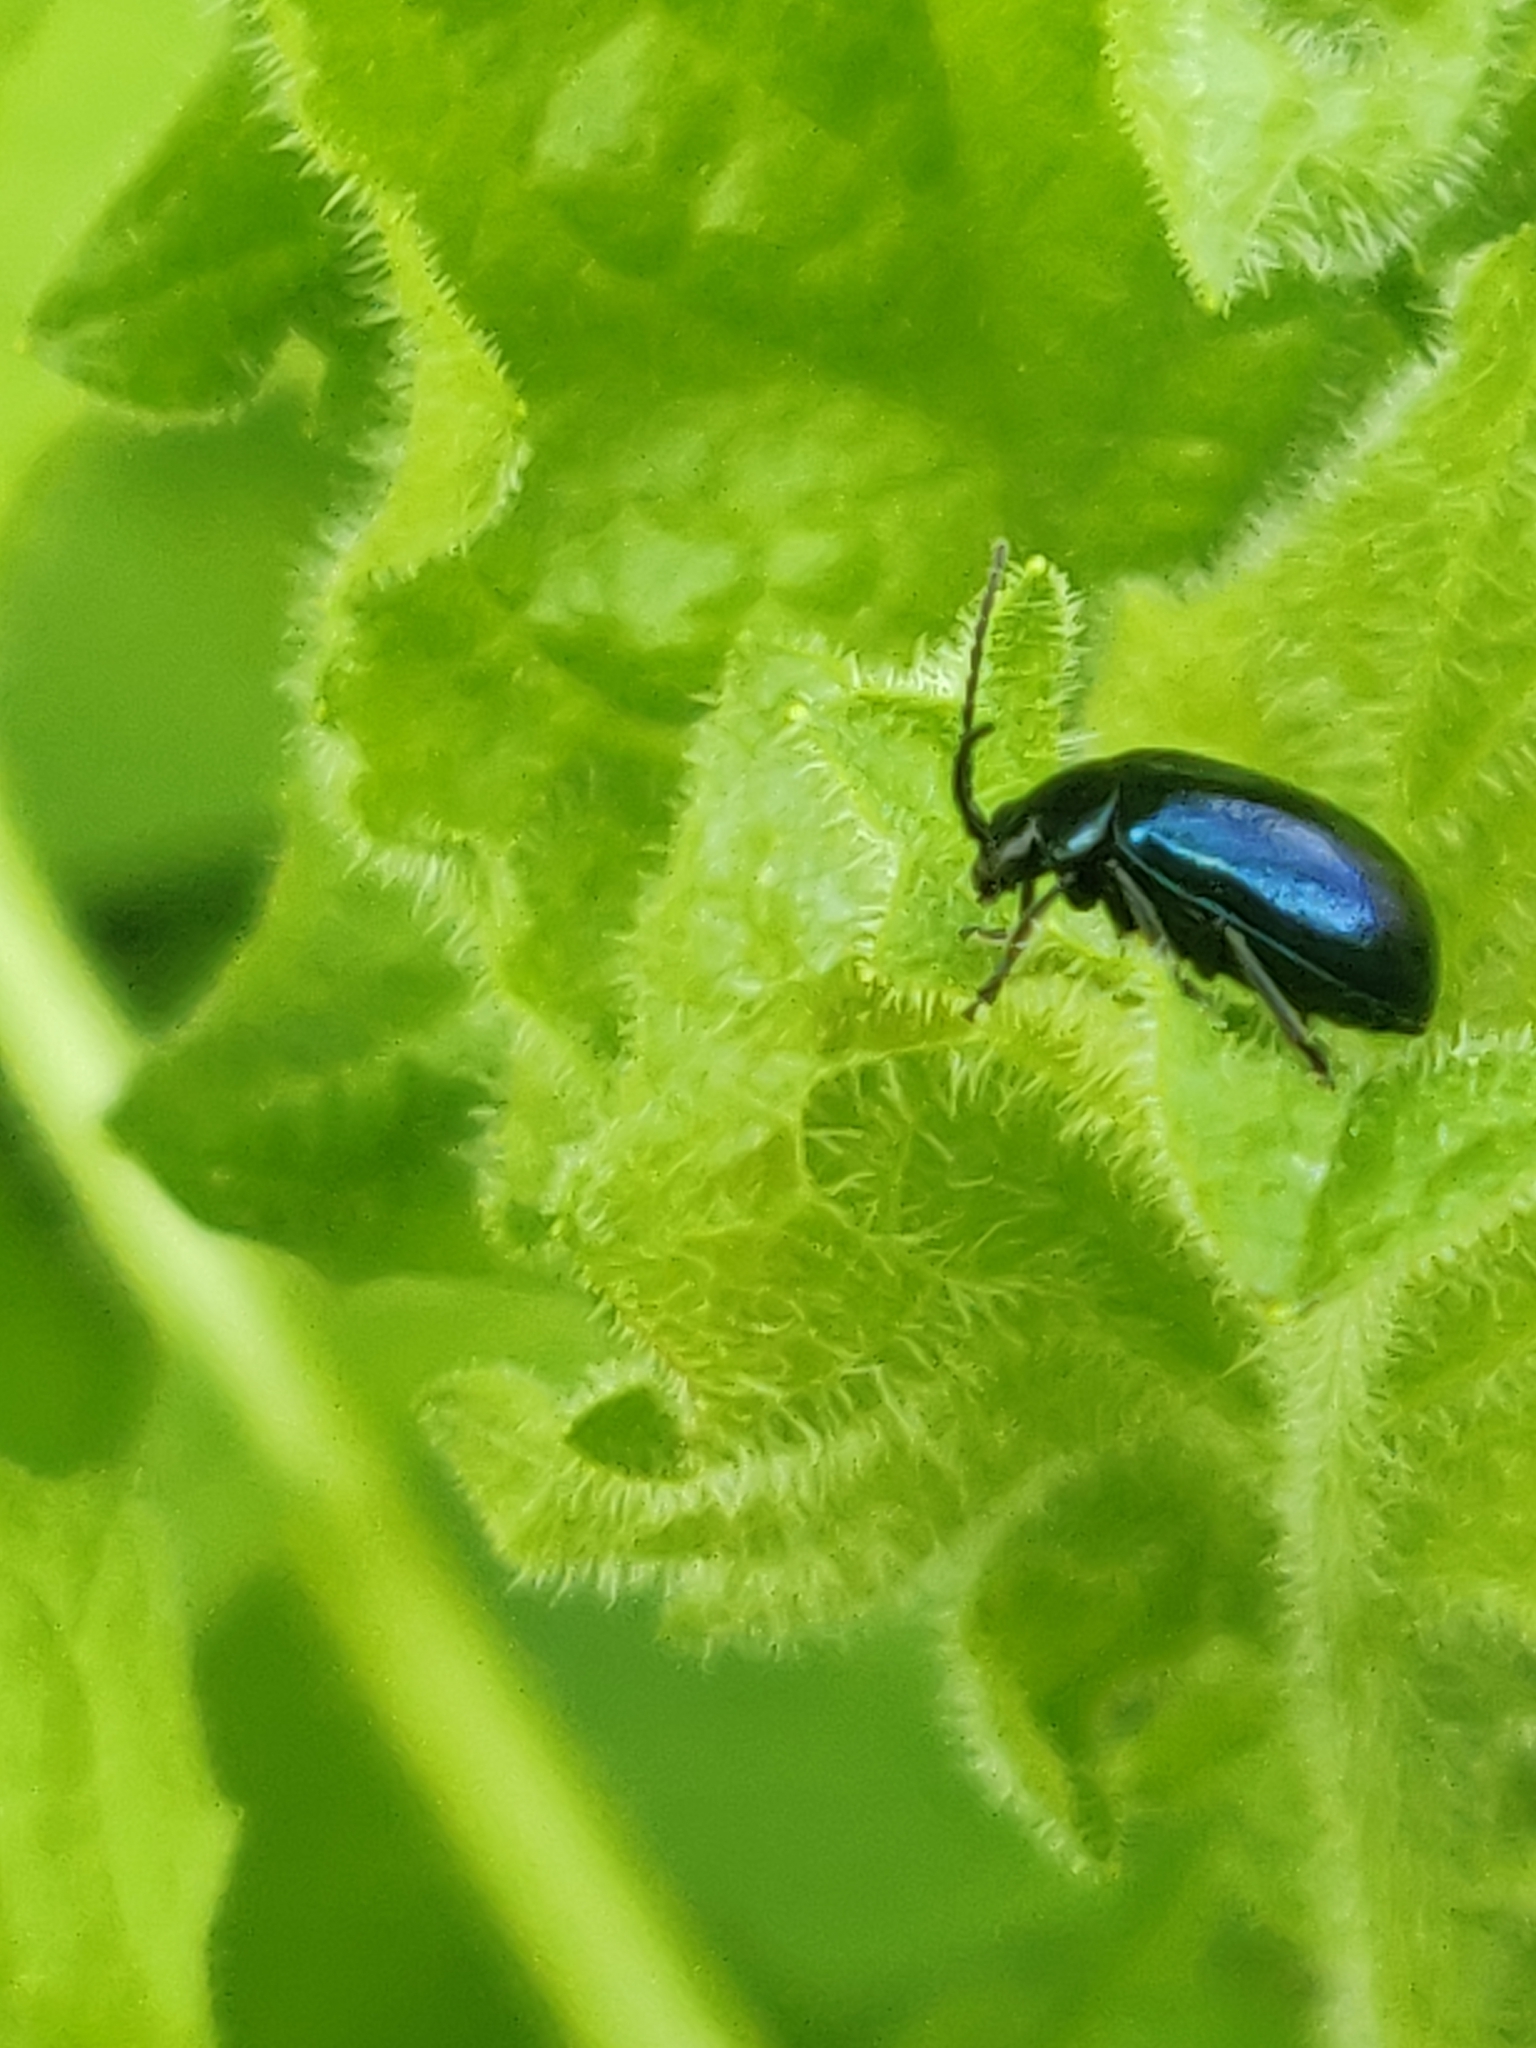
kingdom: Animalia
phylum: Arthropoda
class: Insecta
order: Coleoptera
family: Chrysomelidae
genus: Agelastica
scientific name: Agelastica alni
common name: Alder leaf beetle
